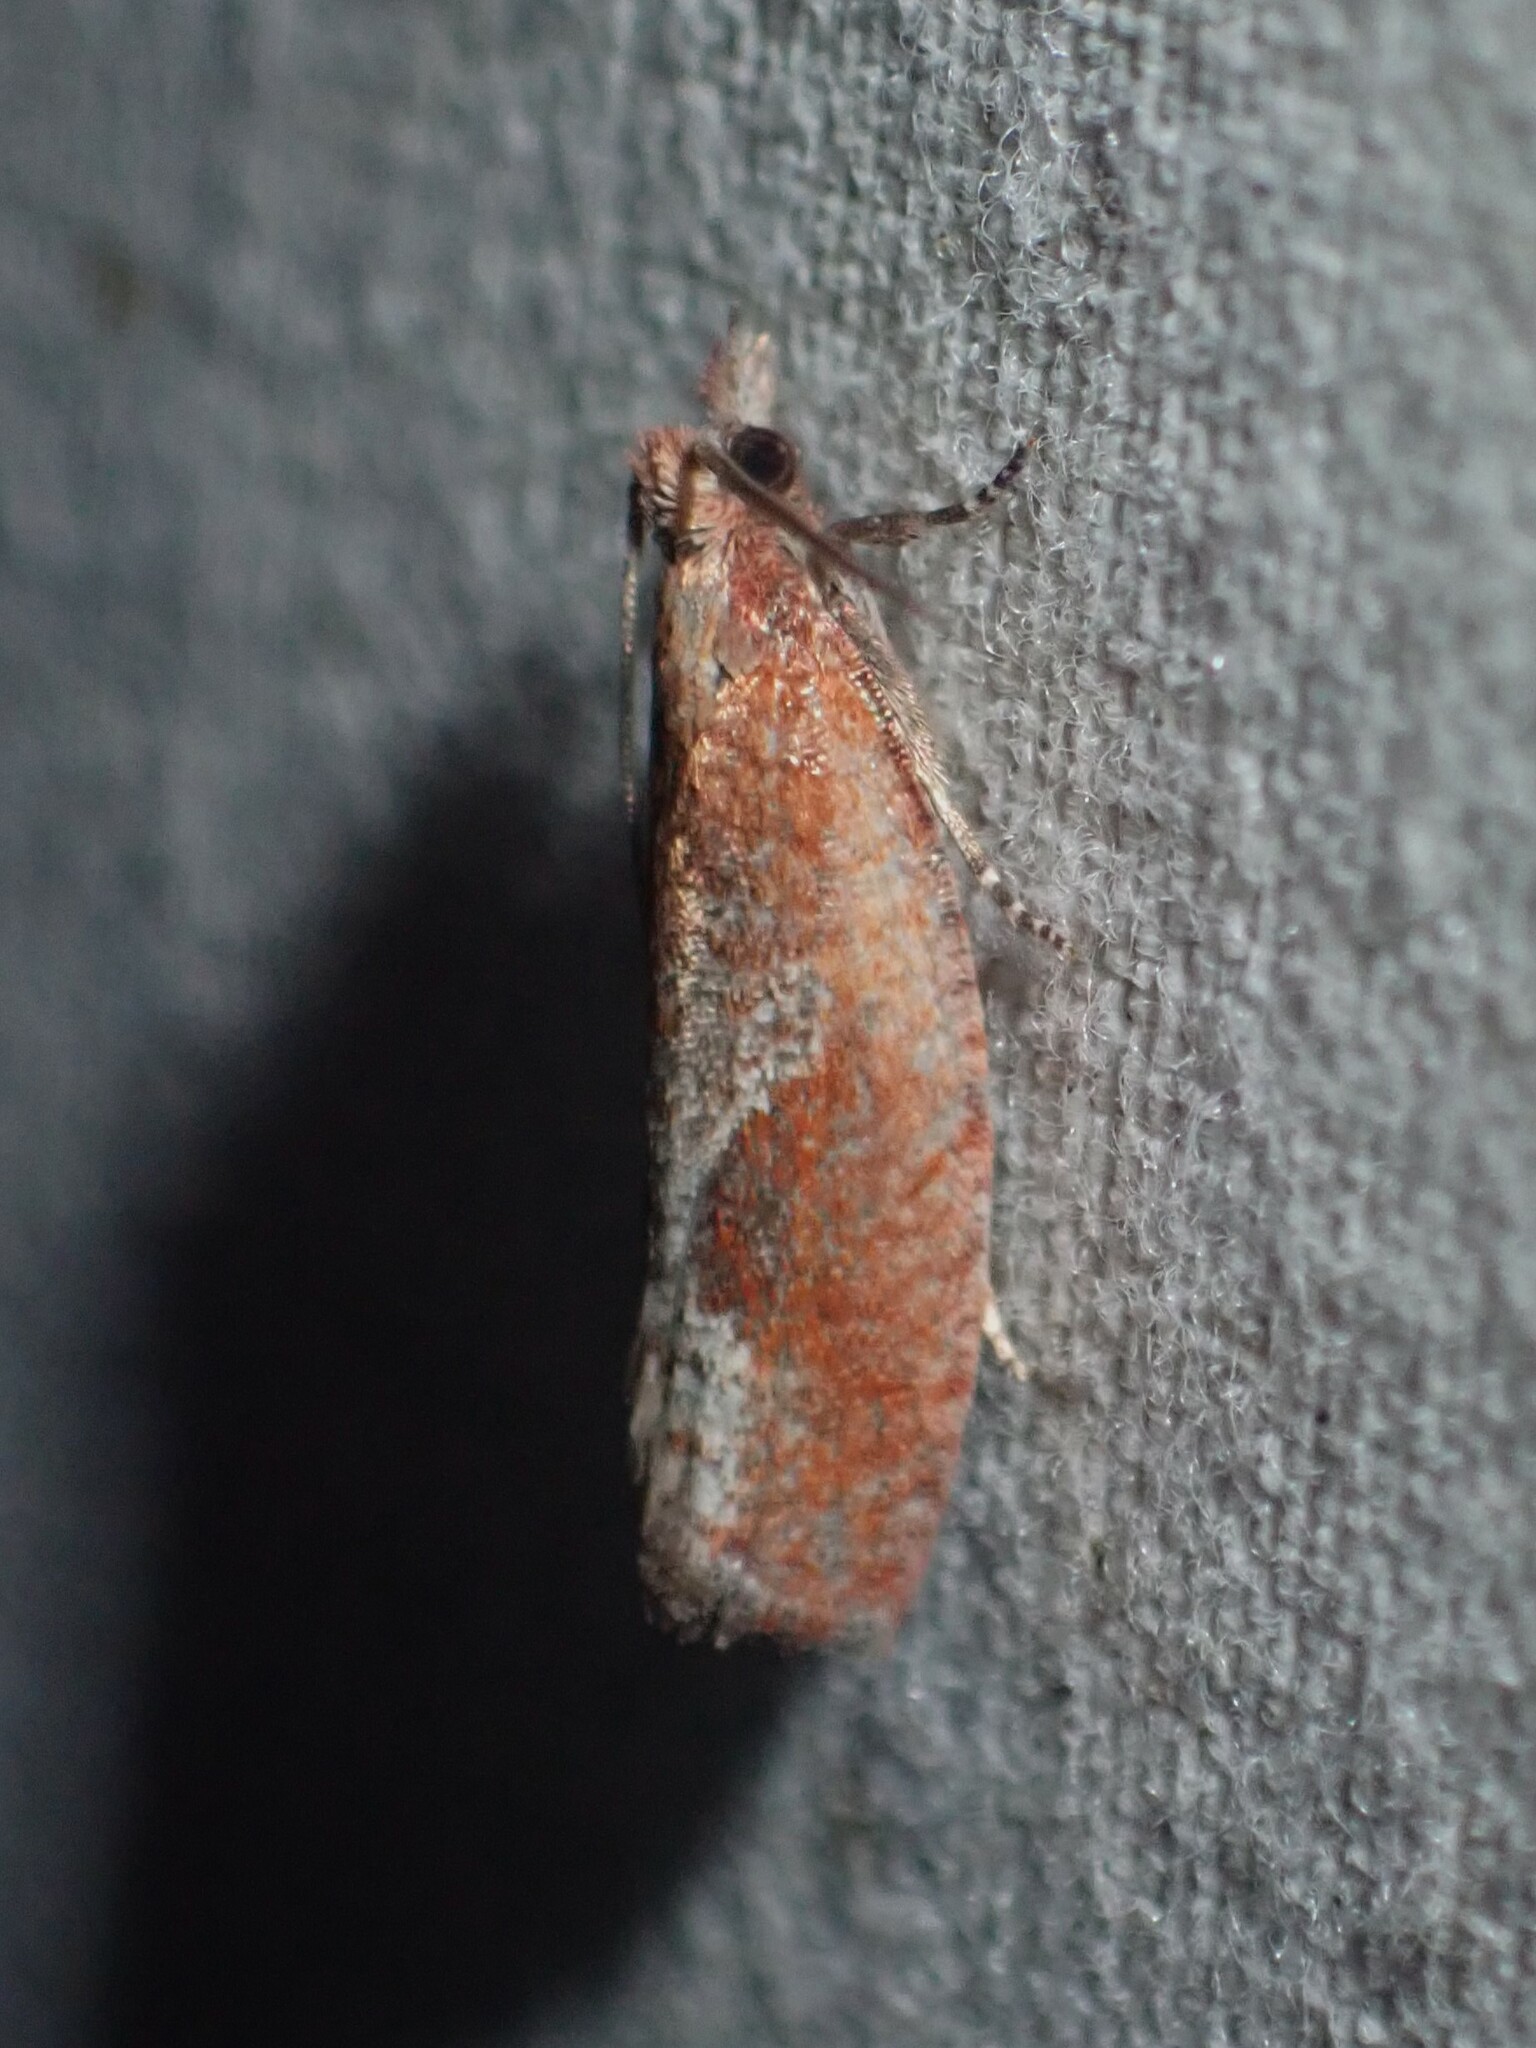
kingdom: Animalia
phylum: Arthropoda
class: Insecta
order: Lepidoptera
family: Tortricidae
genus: Epinotia
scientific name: Epinotia septemberana
